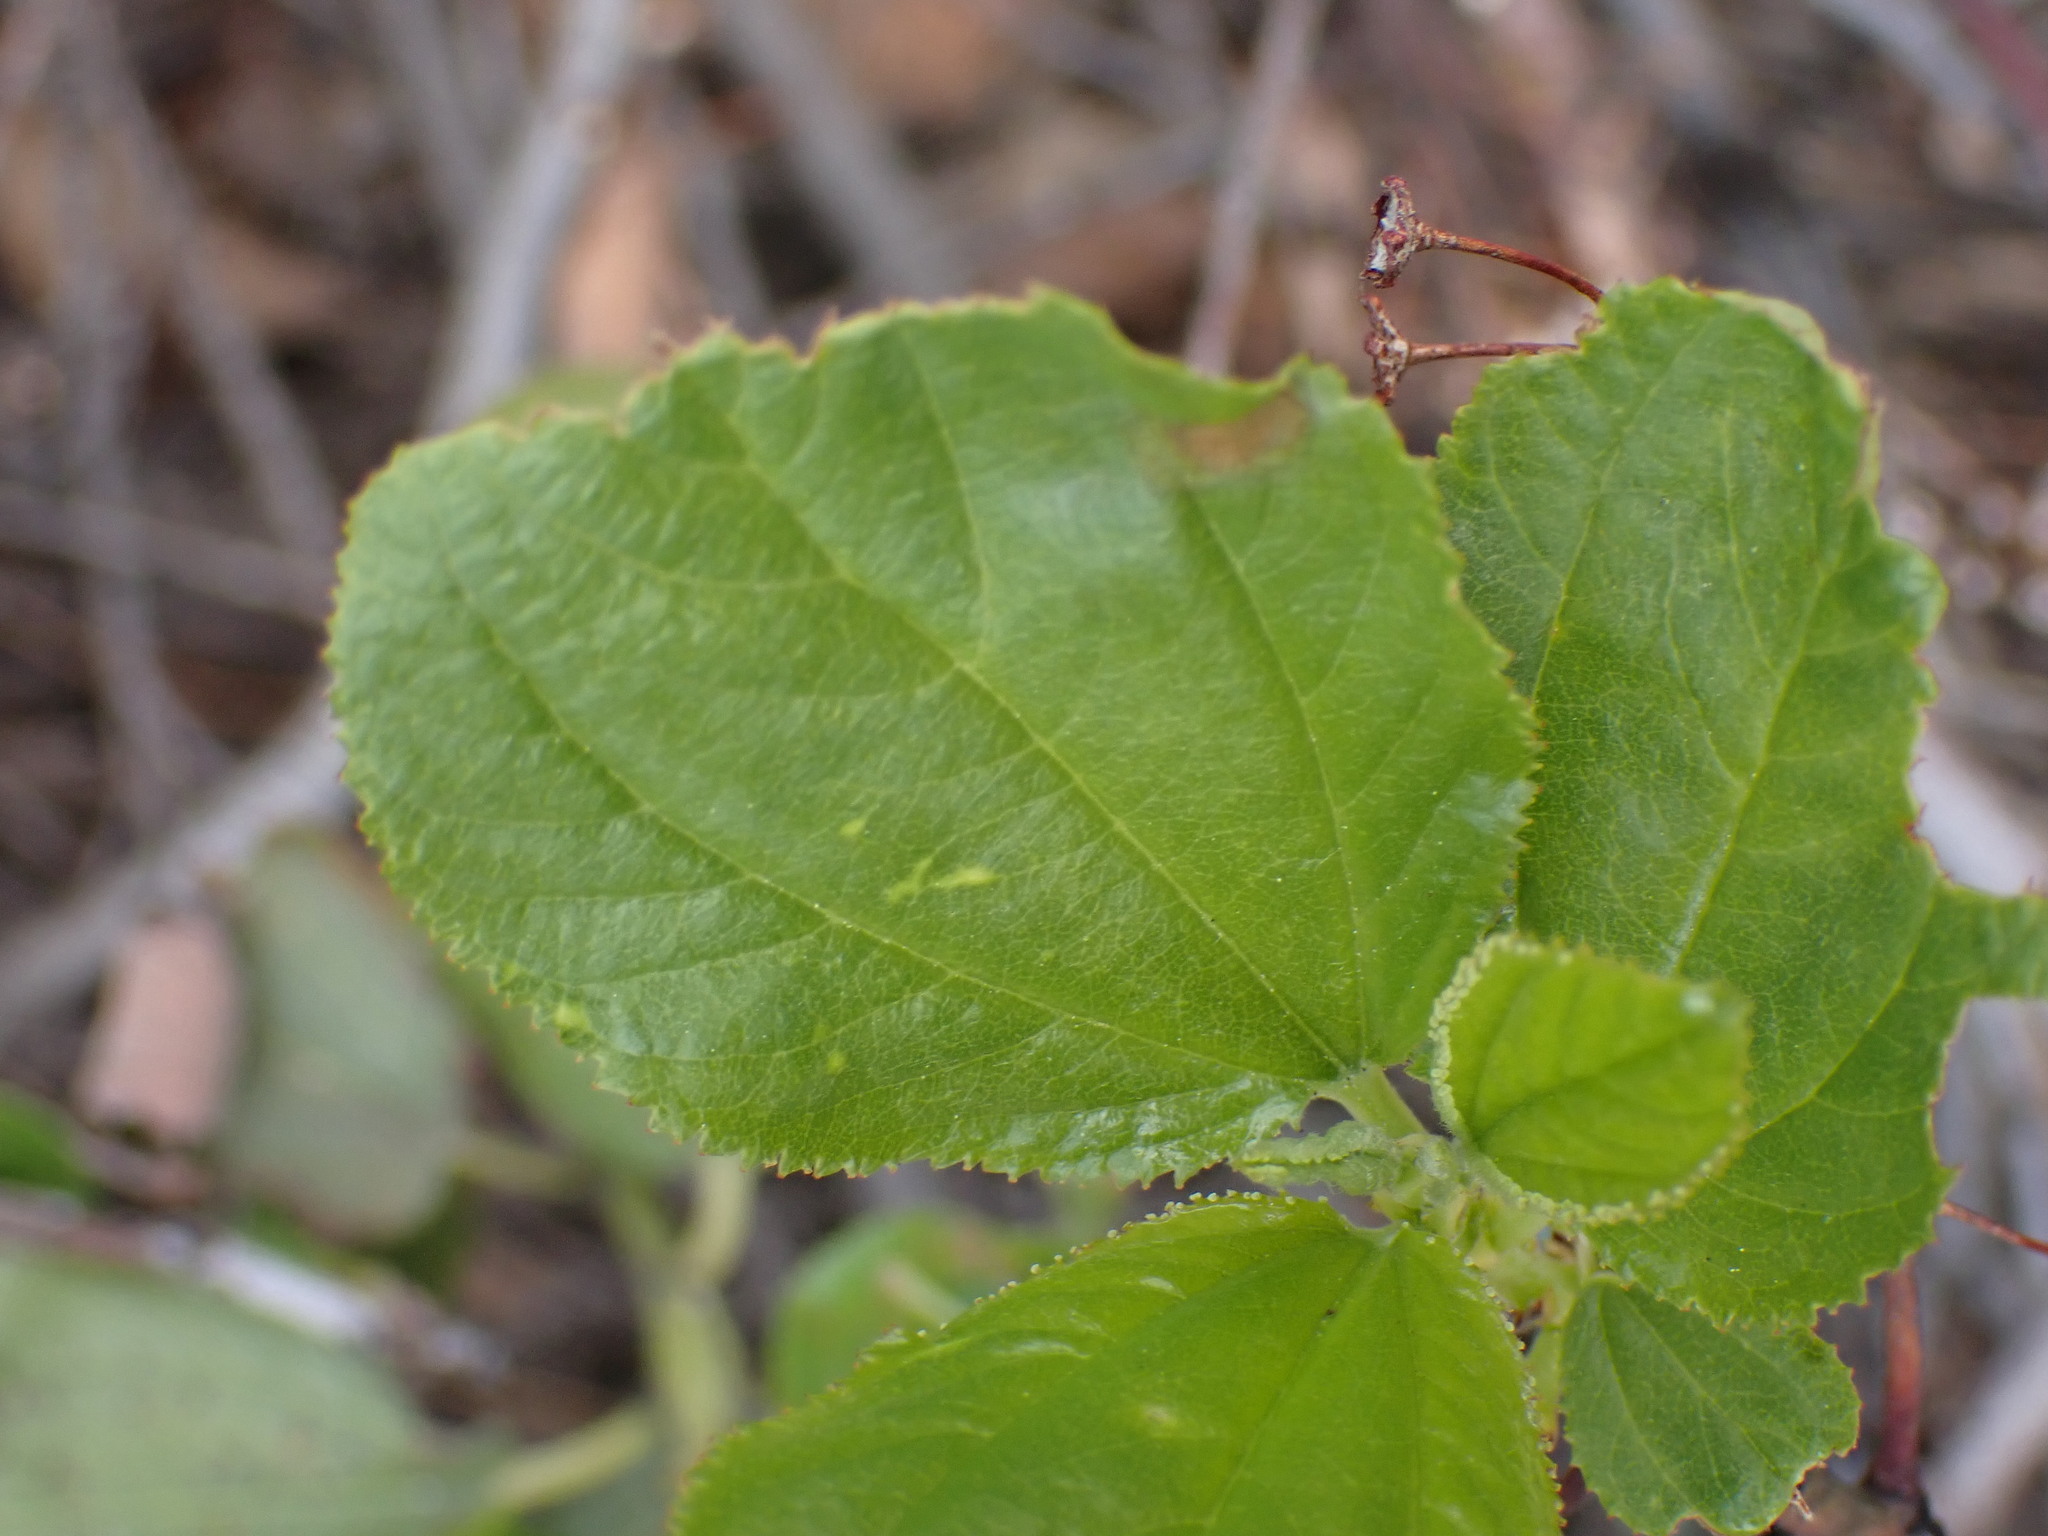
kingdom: Plantae
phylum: Tracheophyta
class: Magnoliopsida
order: Rosales
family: Rhamnaceae
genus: Ceanothus
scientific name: Ceanothus velutinus
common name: Snowbrush
